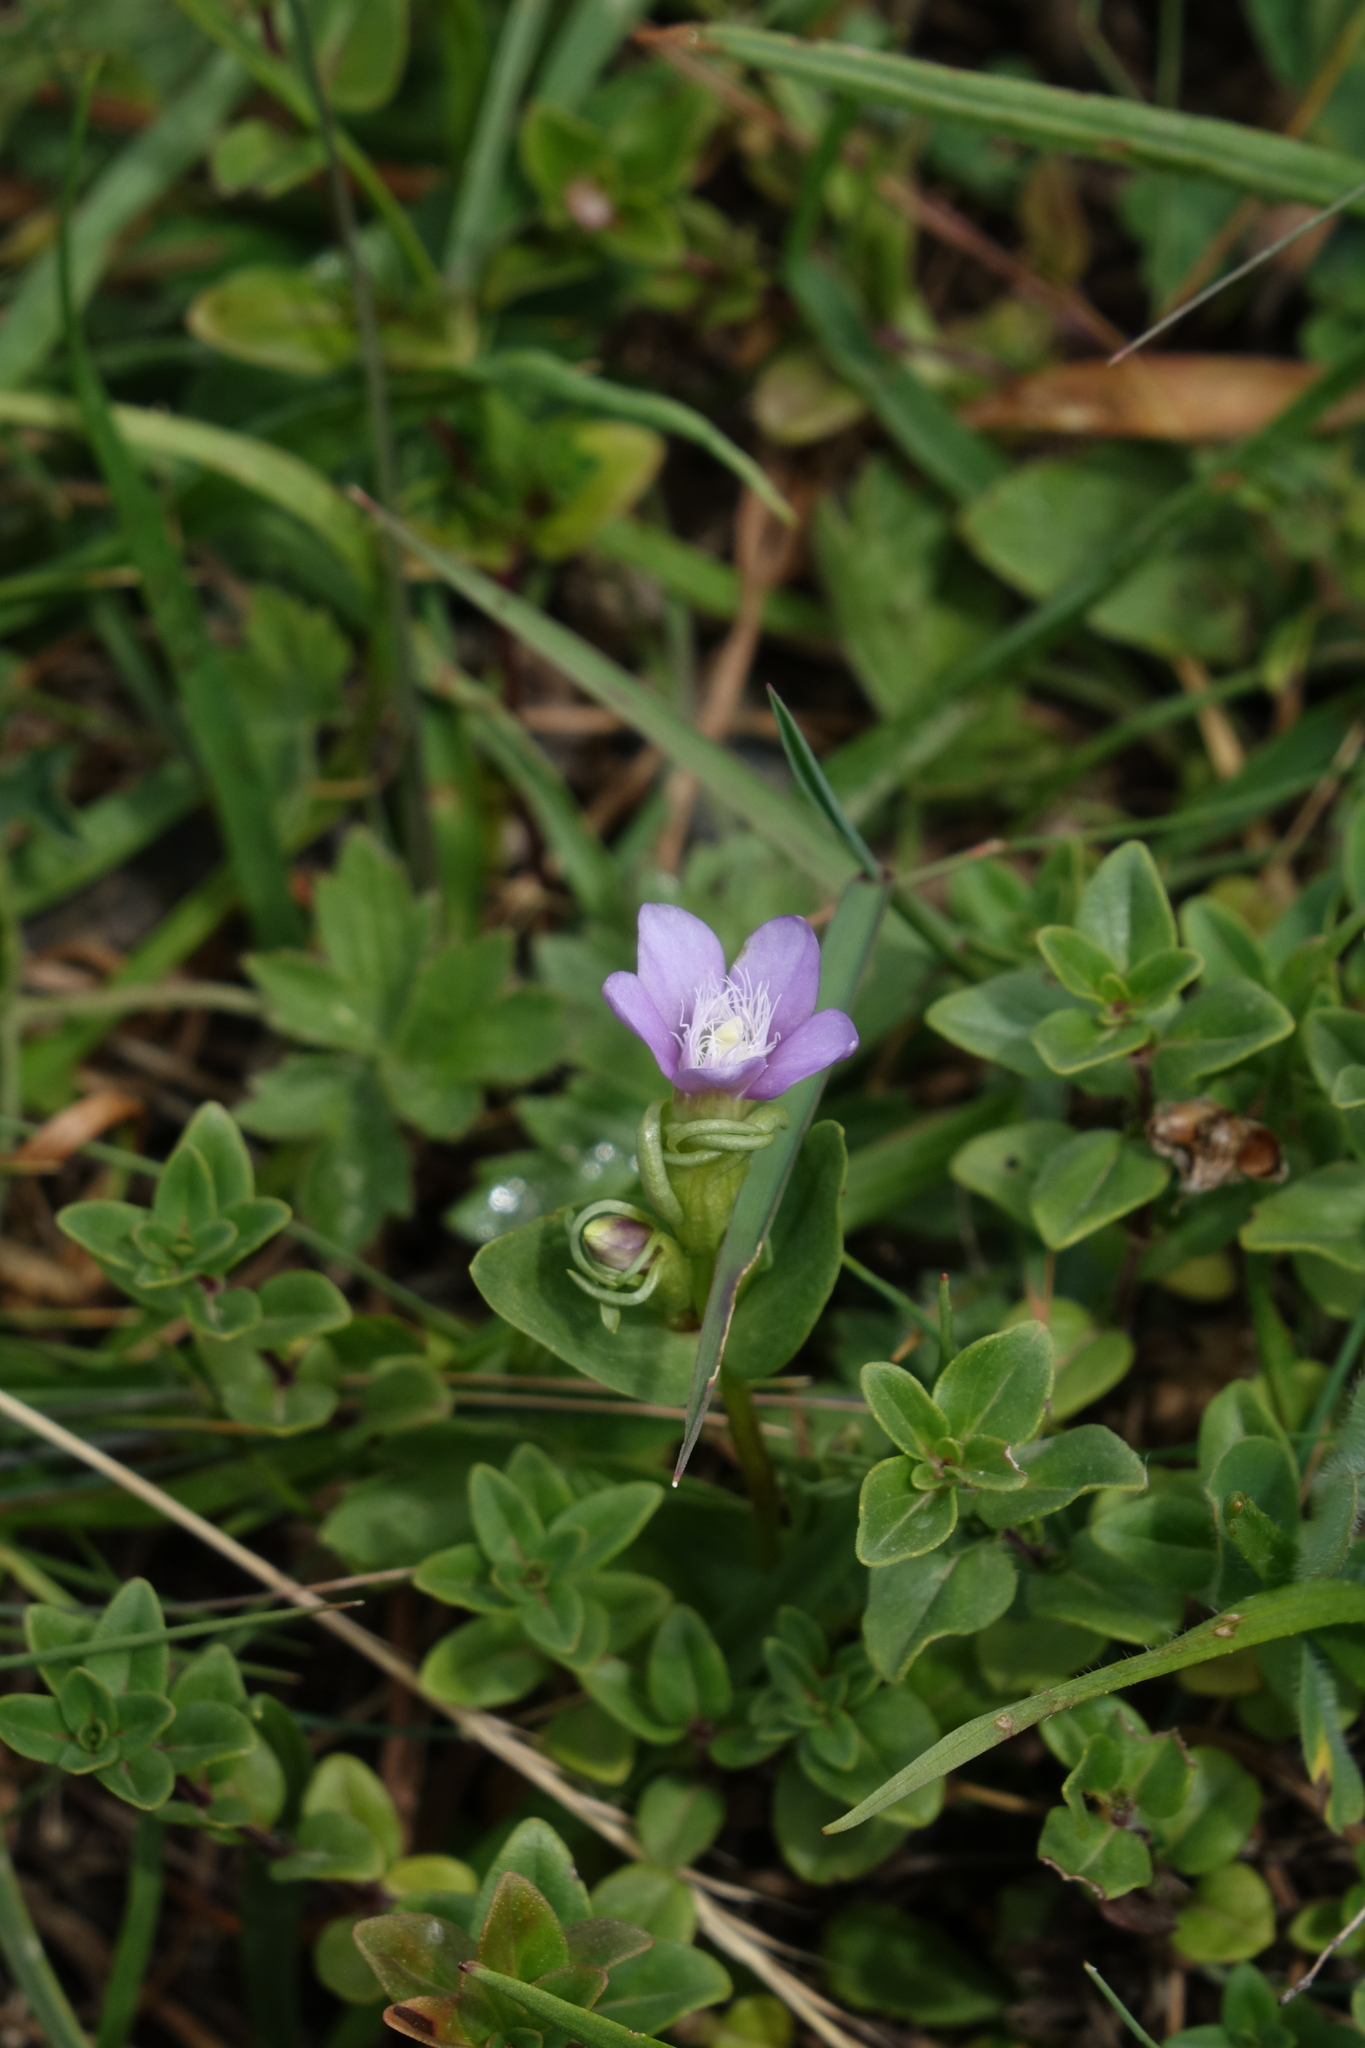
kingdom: Plantae
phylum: Tracheophyta
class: Magnoliopsida
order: Gentianales
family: Gentianaceae
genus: Gentianella
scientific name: Gentianella caucasea
